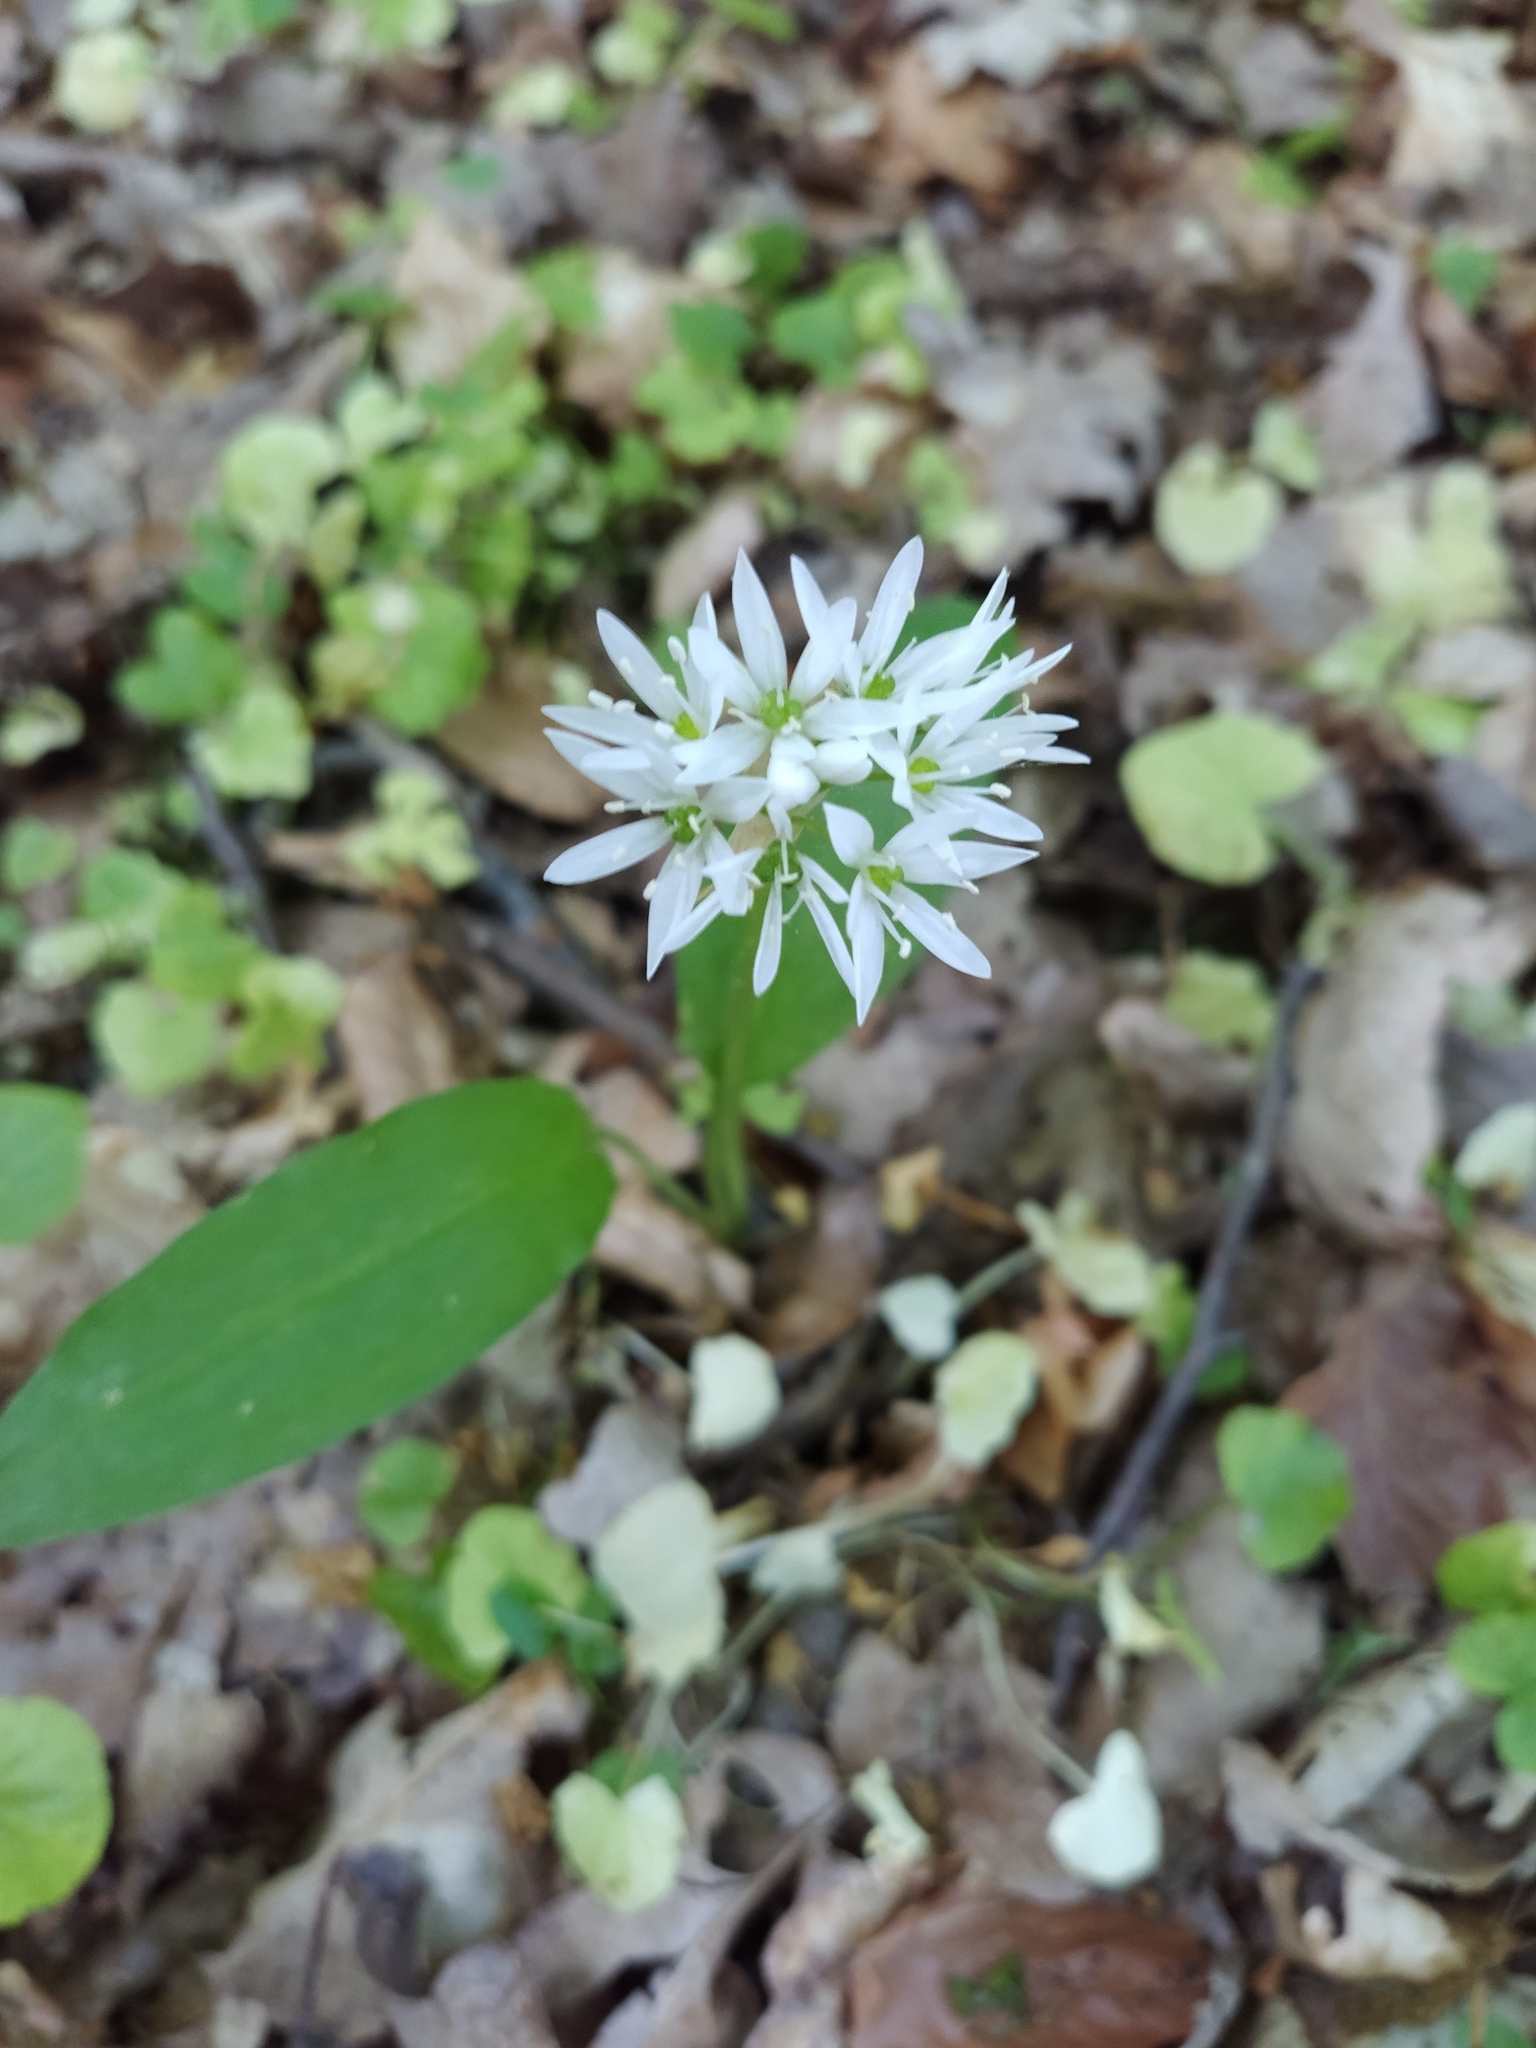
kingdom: Plantae
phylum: Tracheophyta
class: Liliopsida
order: Asparagales
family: Amaryllidaceae
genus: Allium
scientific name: Allium ursinum
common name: Ramsons
